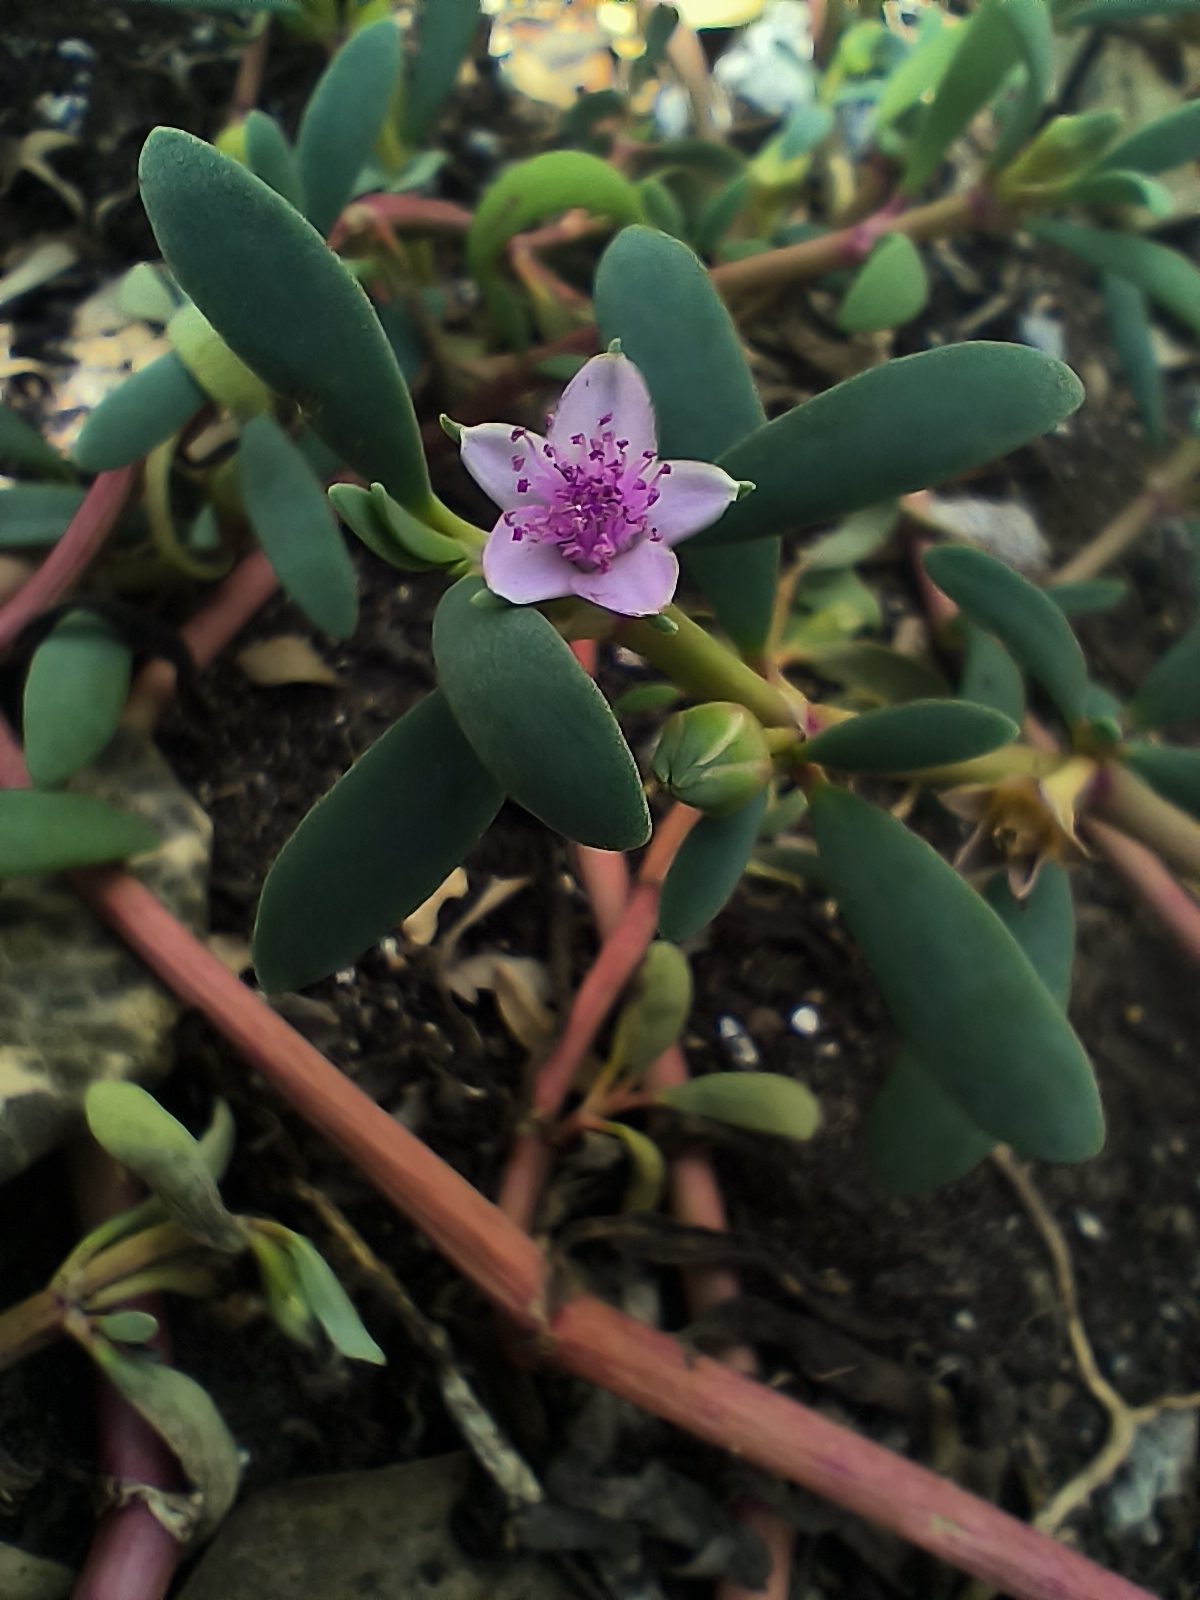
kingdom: Plantae
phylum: Tracheophyta
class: Magnoliopsida
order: Caryophyllales
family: Aizoaceae
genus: Sesuvium
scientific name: Sesuvium portulacastrum
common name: Sea-purslane
